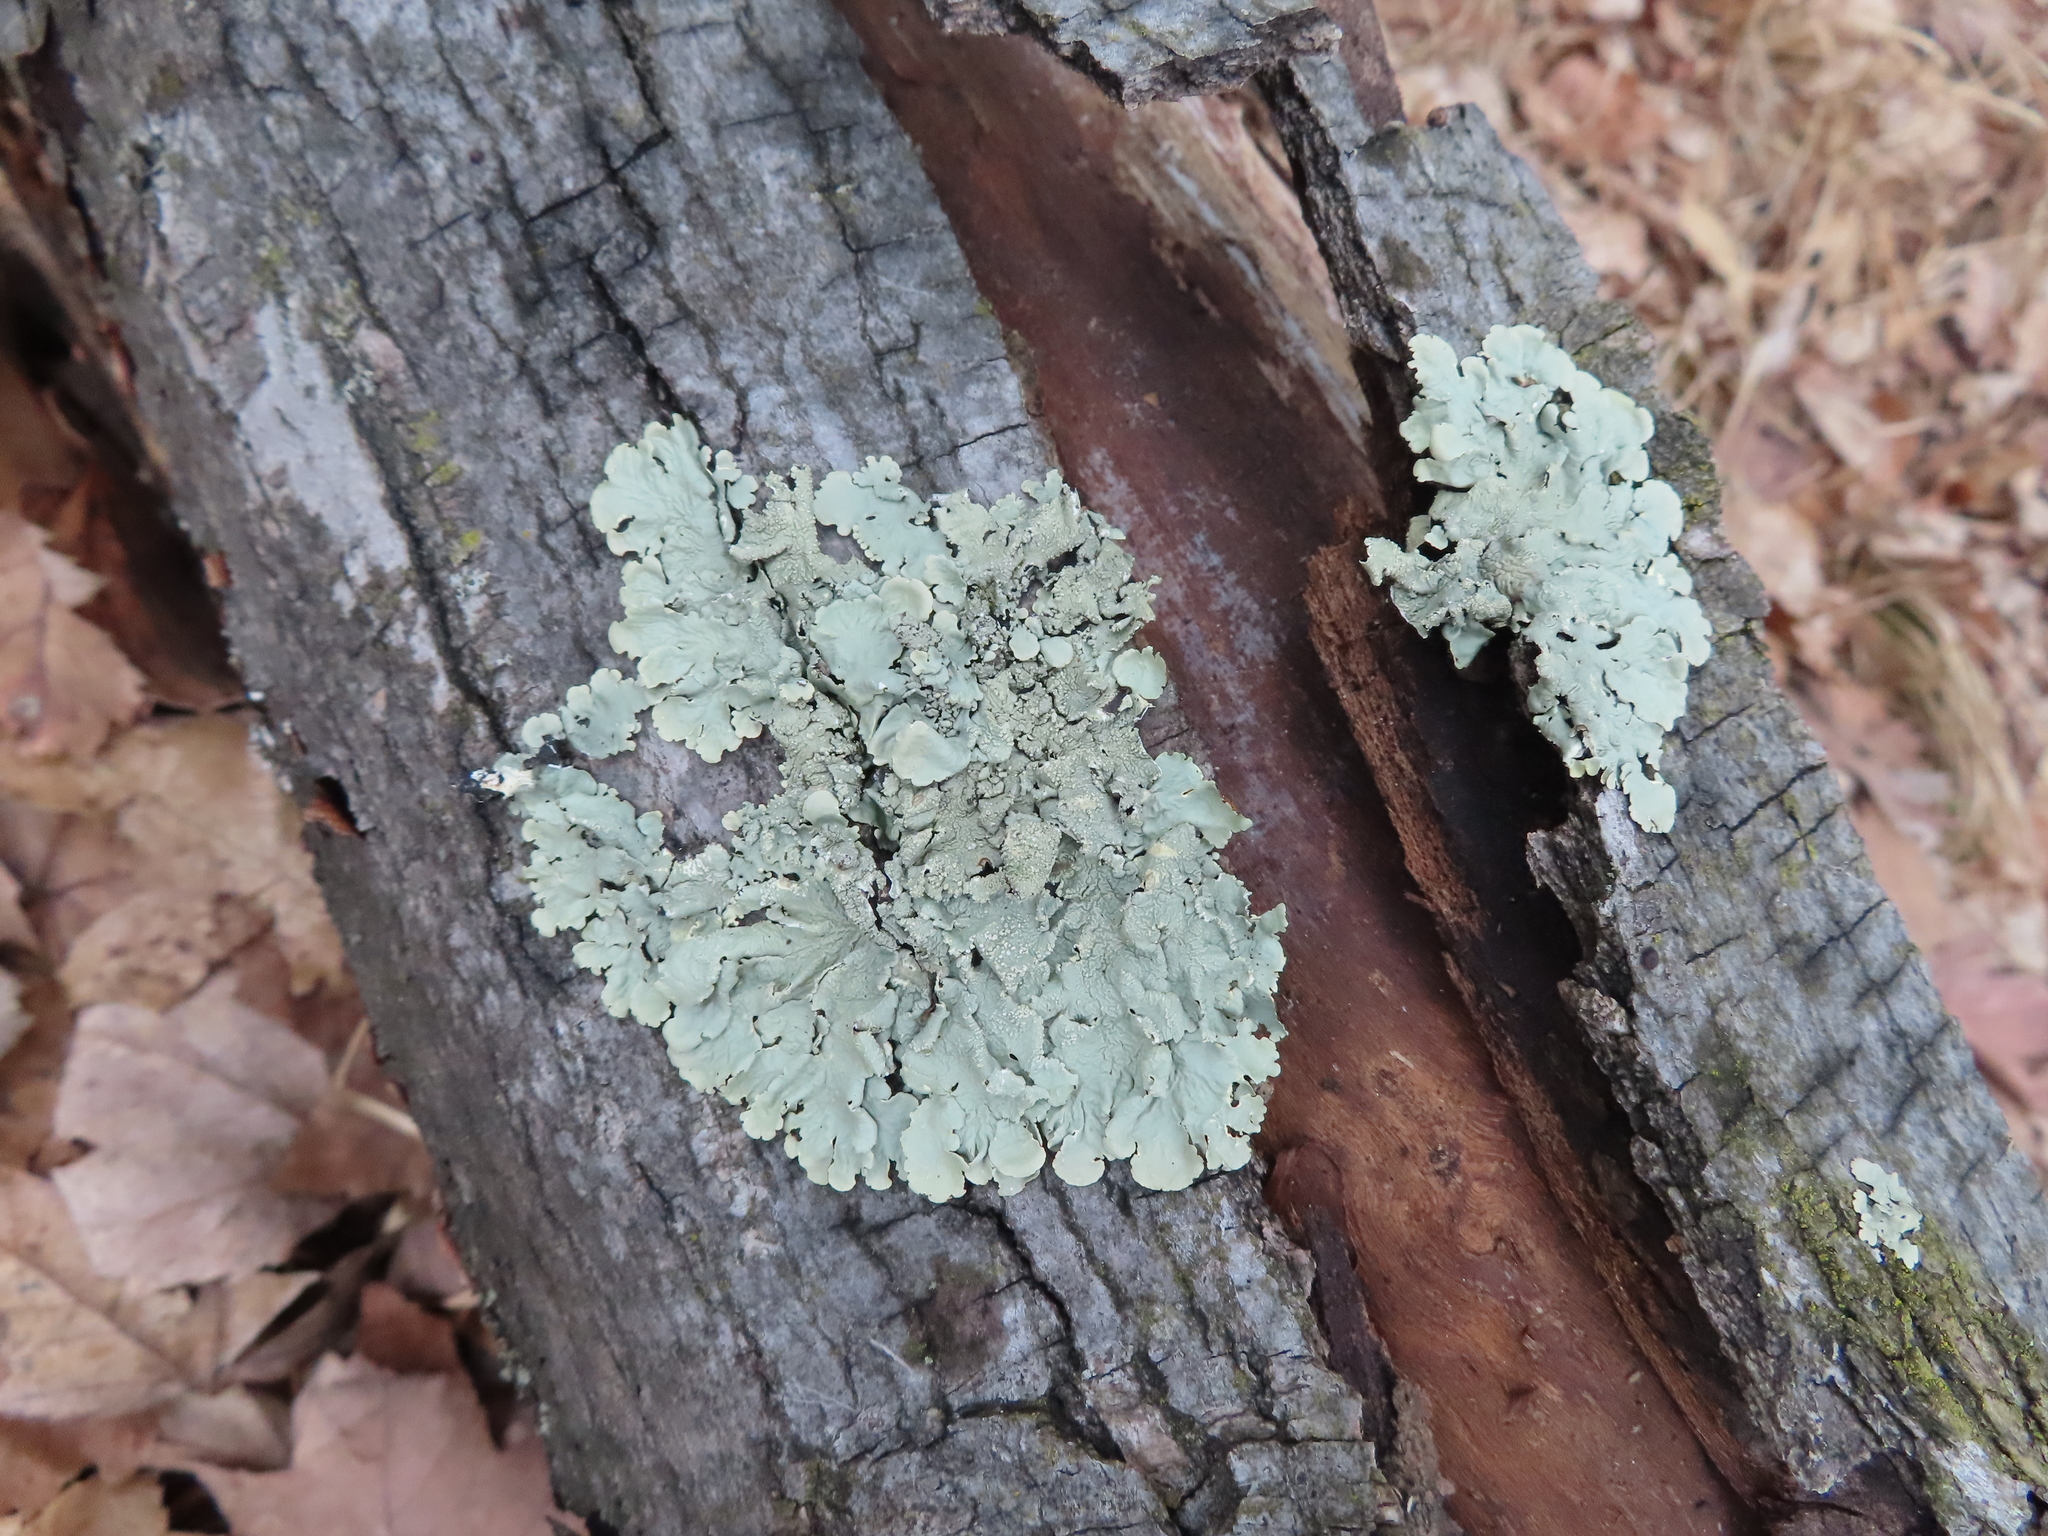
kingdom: Fungi
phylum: Ascomycota
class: Lecanoromycetes
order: Lecanorales
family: Parmeliaceae
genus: Flavoparmelia
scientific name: Flavoparmelia caperata
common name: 40-mile per hour lichen
